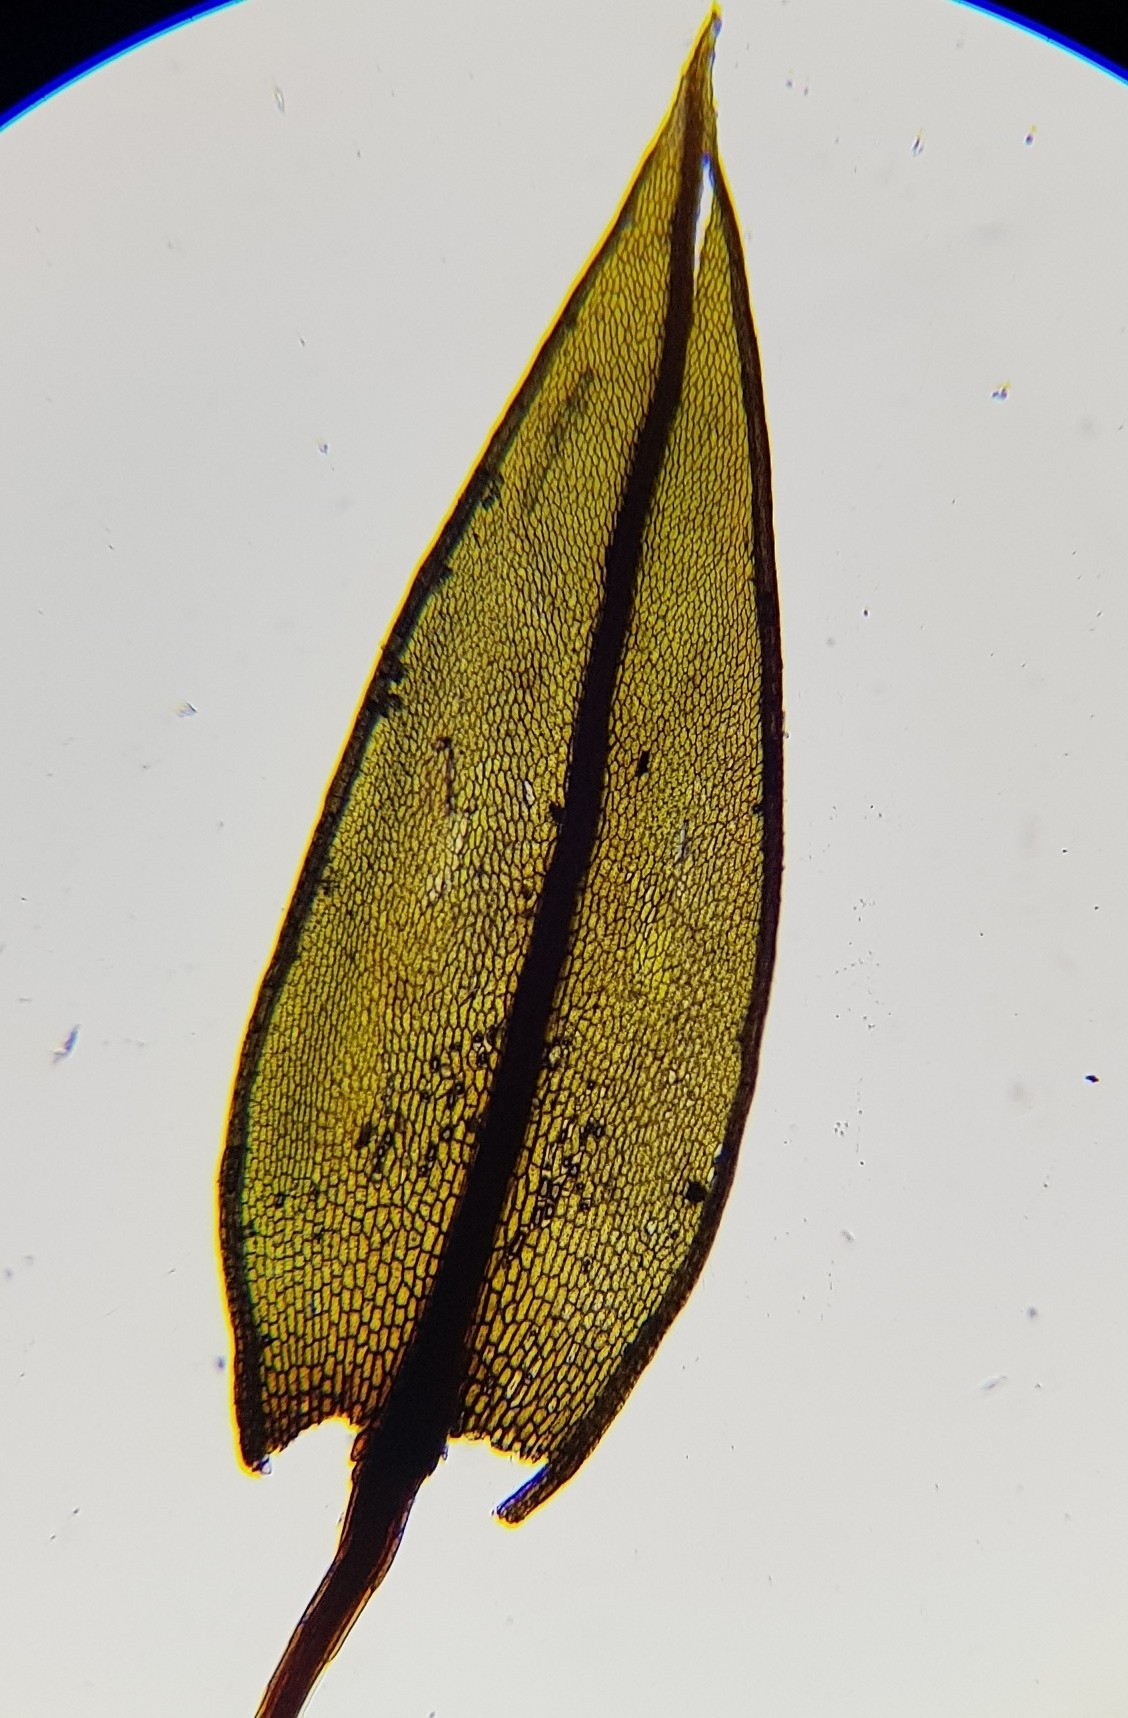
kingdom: Plantae
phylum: Bryophyta
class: Bryopsida
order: Bryales
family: Bryaceae
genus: Ptychostomum
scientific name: Ptychostomum pseudotriquetrum
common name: Long-leaved thread moss
